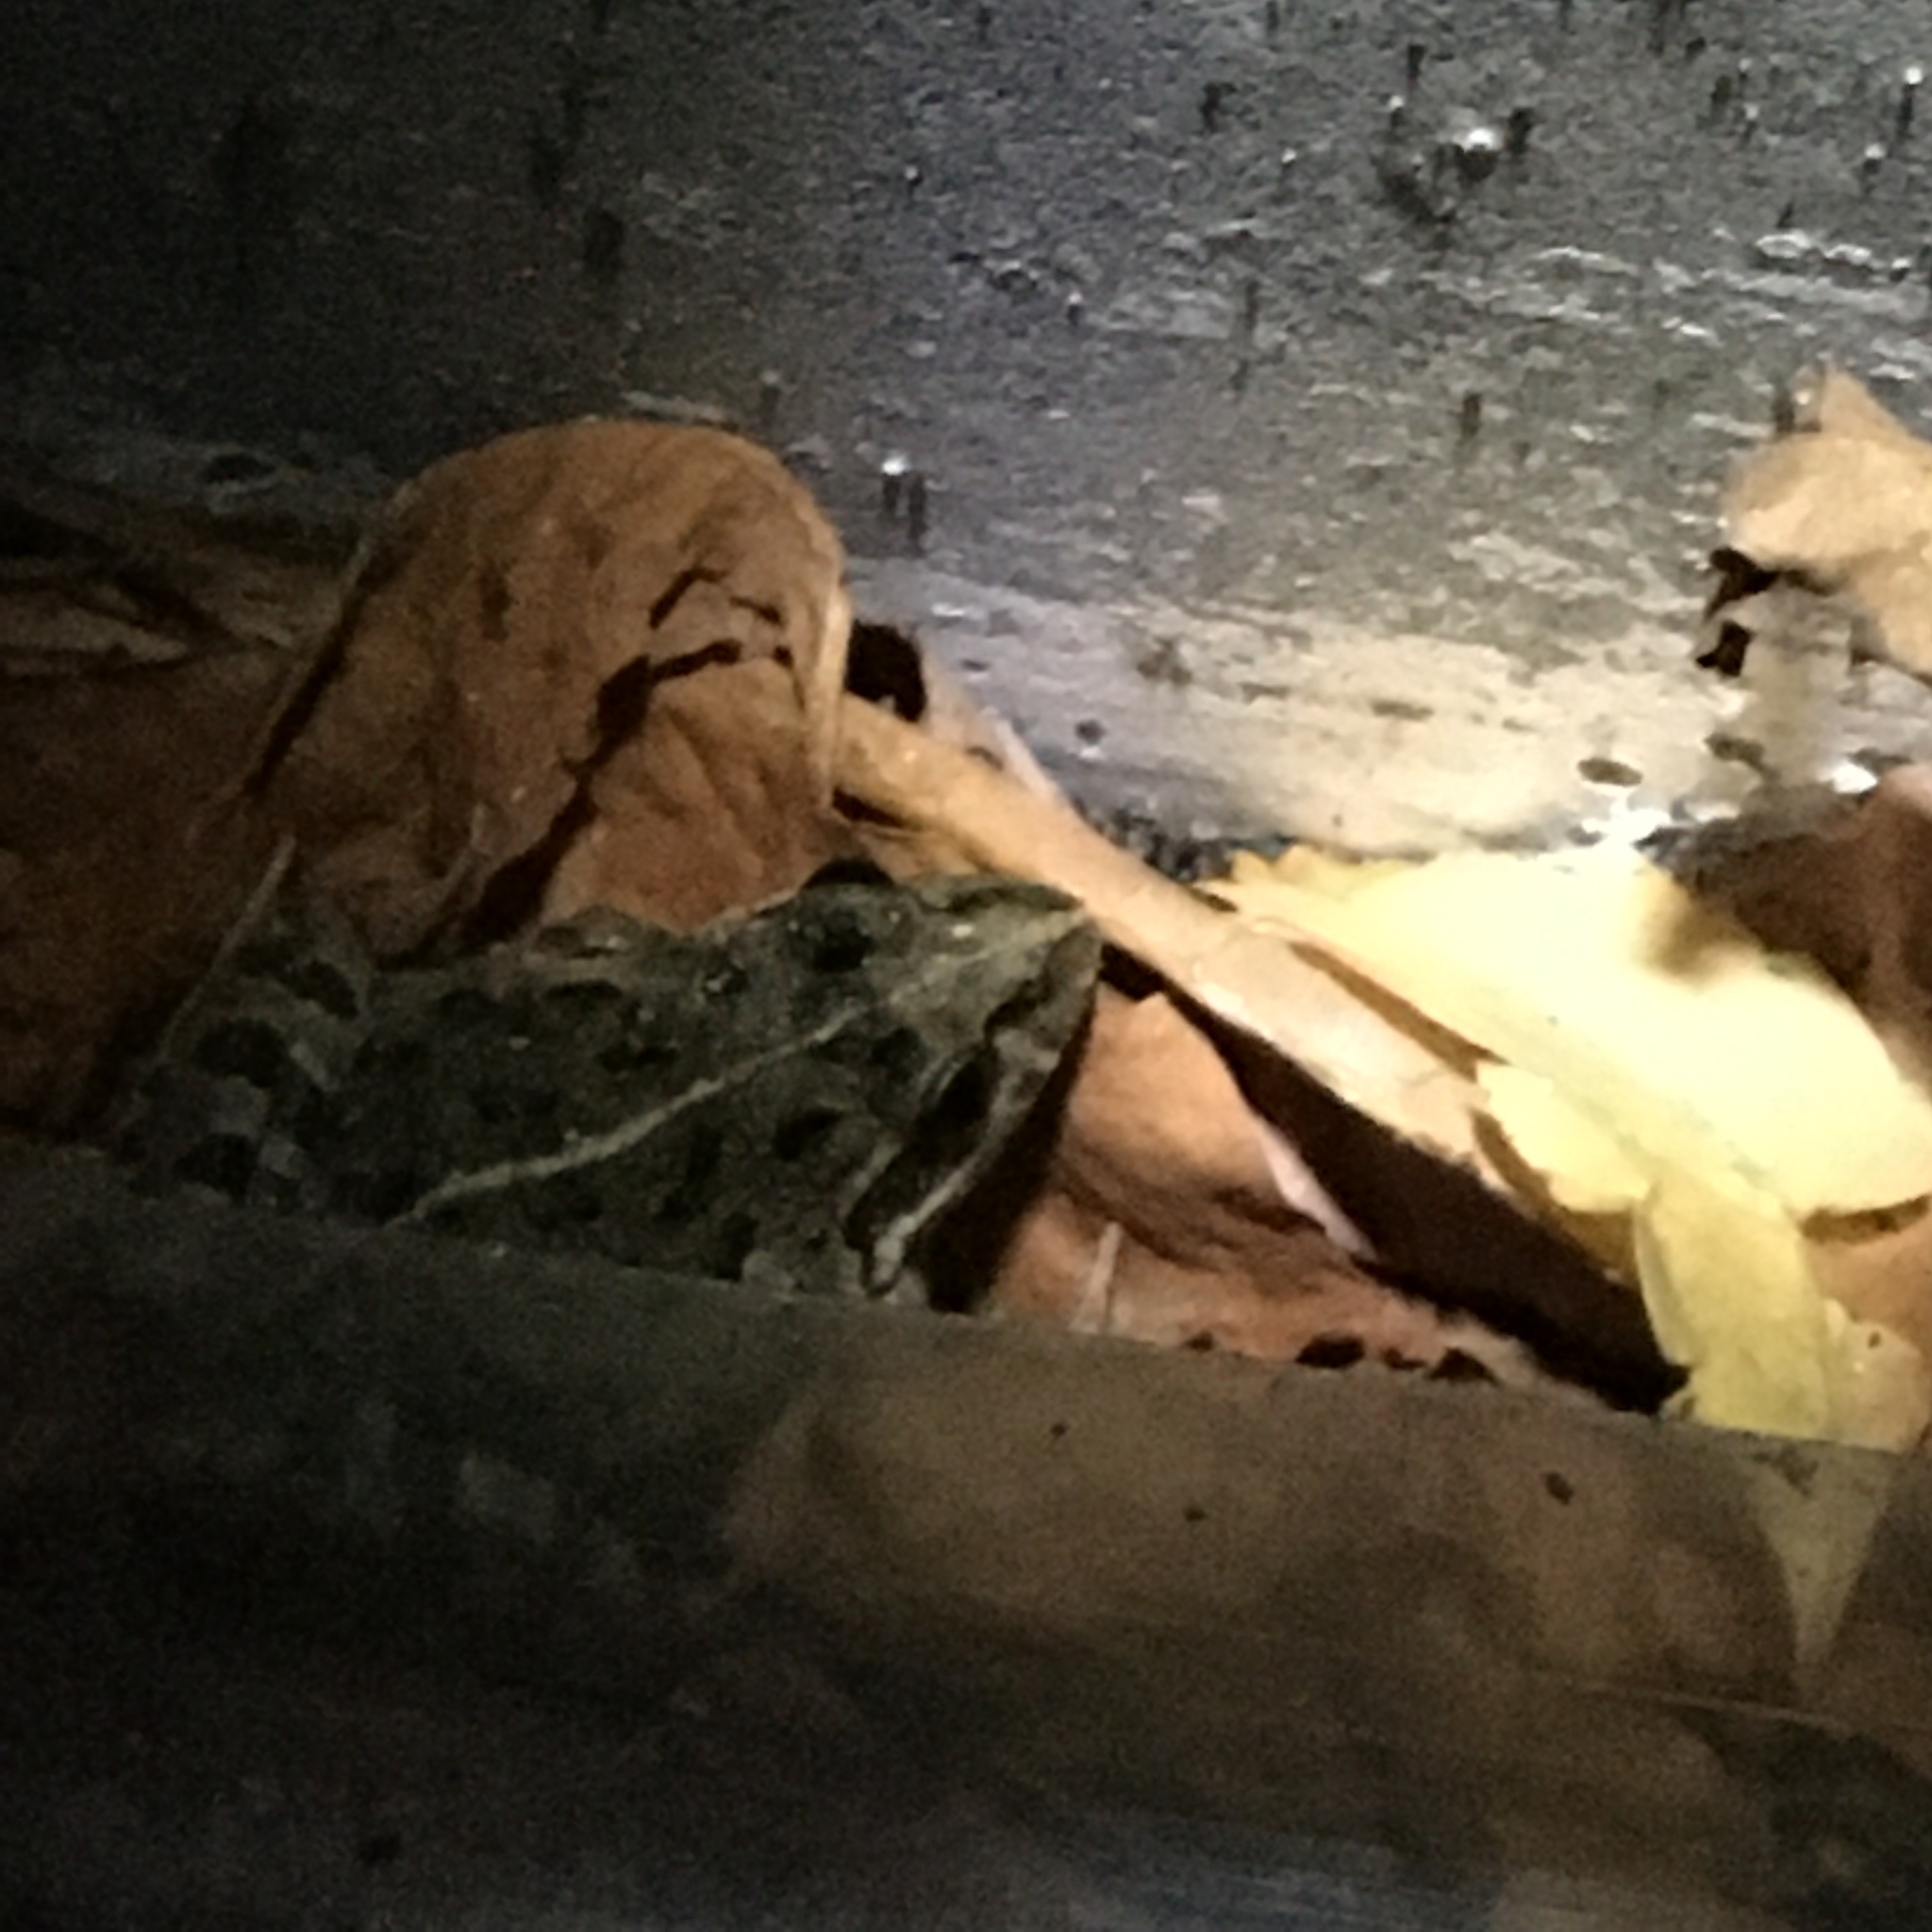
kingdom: Animalia
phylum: Chordata
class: Amphibia
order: Anura
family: Pyxicephalidae
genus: Strongylopus
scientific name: Strongylopus grayii
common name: Gray's stream frog
